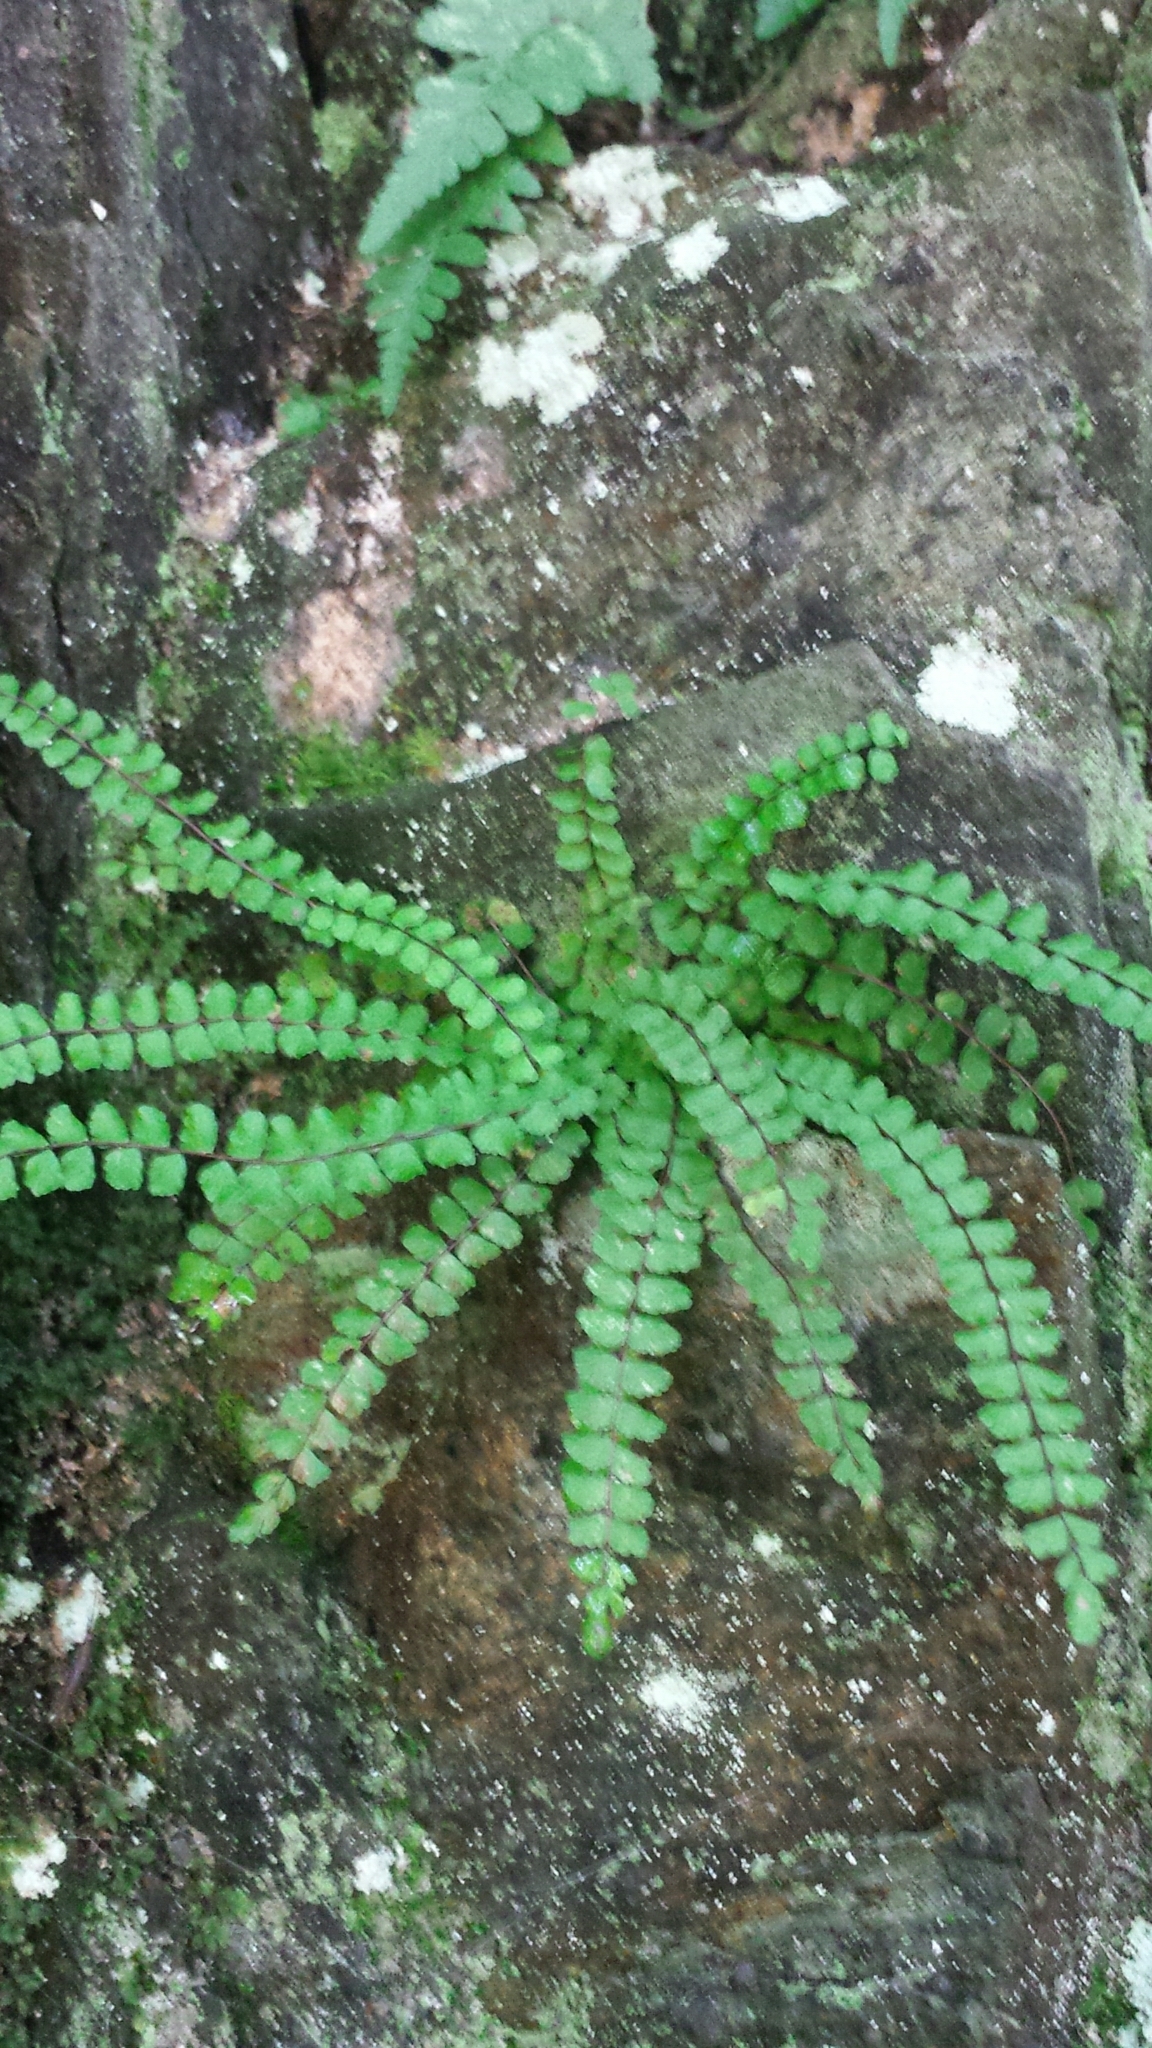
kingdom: Plantae
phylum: Tracheophyta
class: Polypodiopsida
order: Polypodiales
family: Aspleniaceae
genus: Asplenium
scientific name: Asplenium trichomanes
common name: Maidenhair spleenwort
